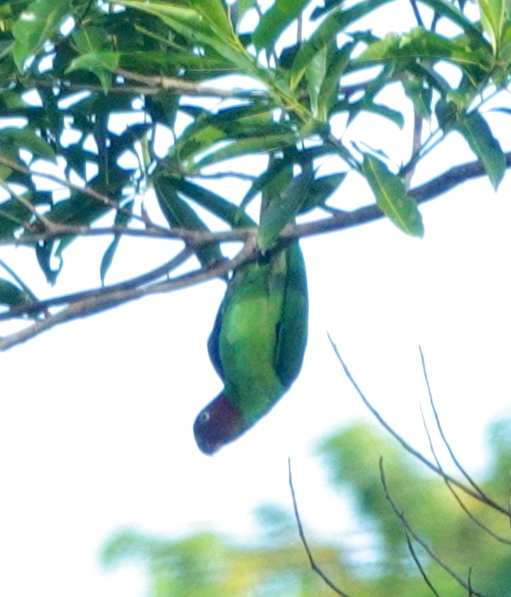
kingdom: Animalia
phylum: Chordata
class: Aves
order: Psittaciformes
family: Psittacidae
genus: Geoffroyus
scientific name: Geoffroyus geoffroyi
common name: Red-cheeked parrot
